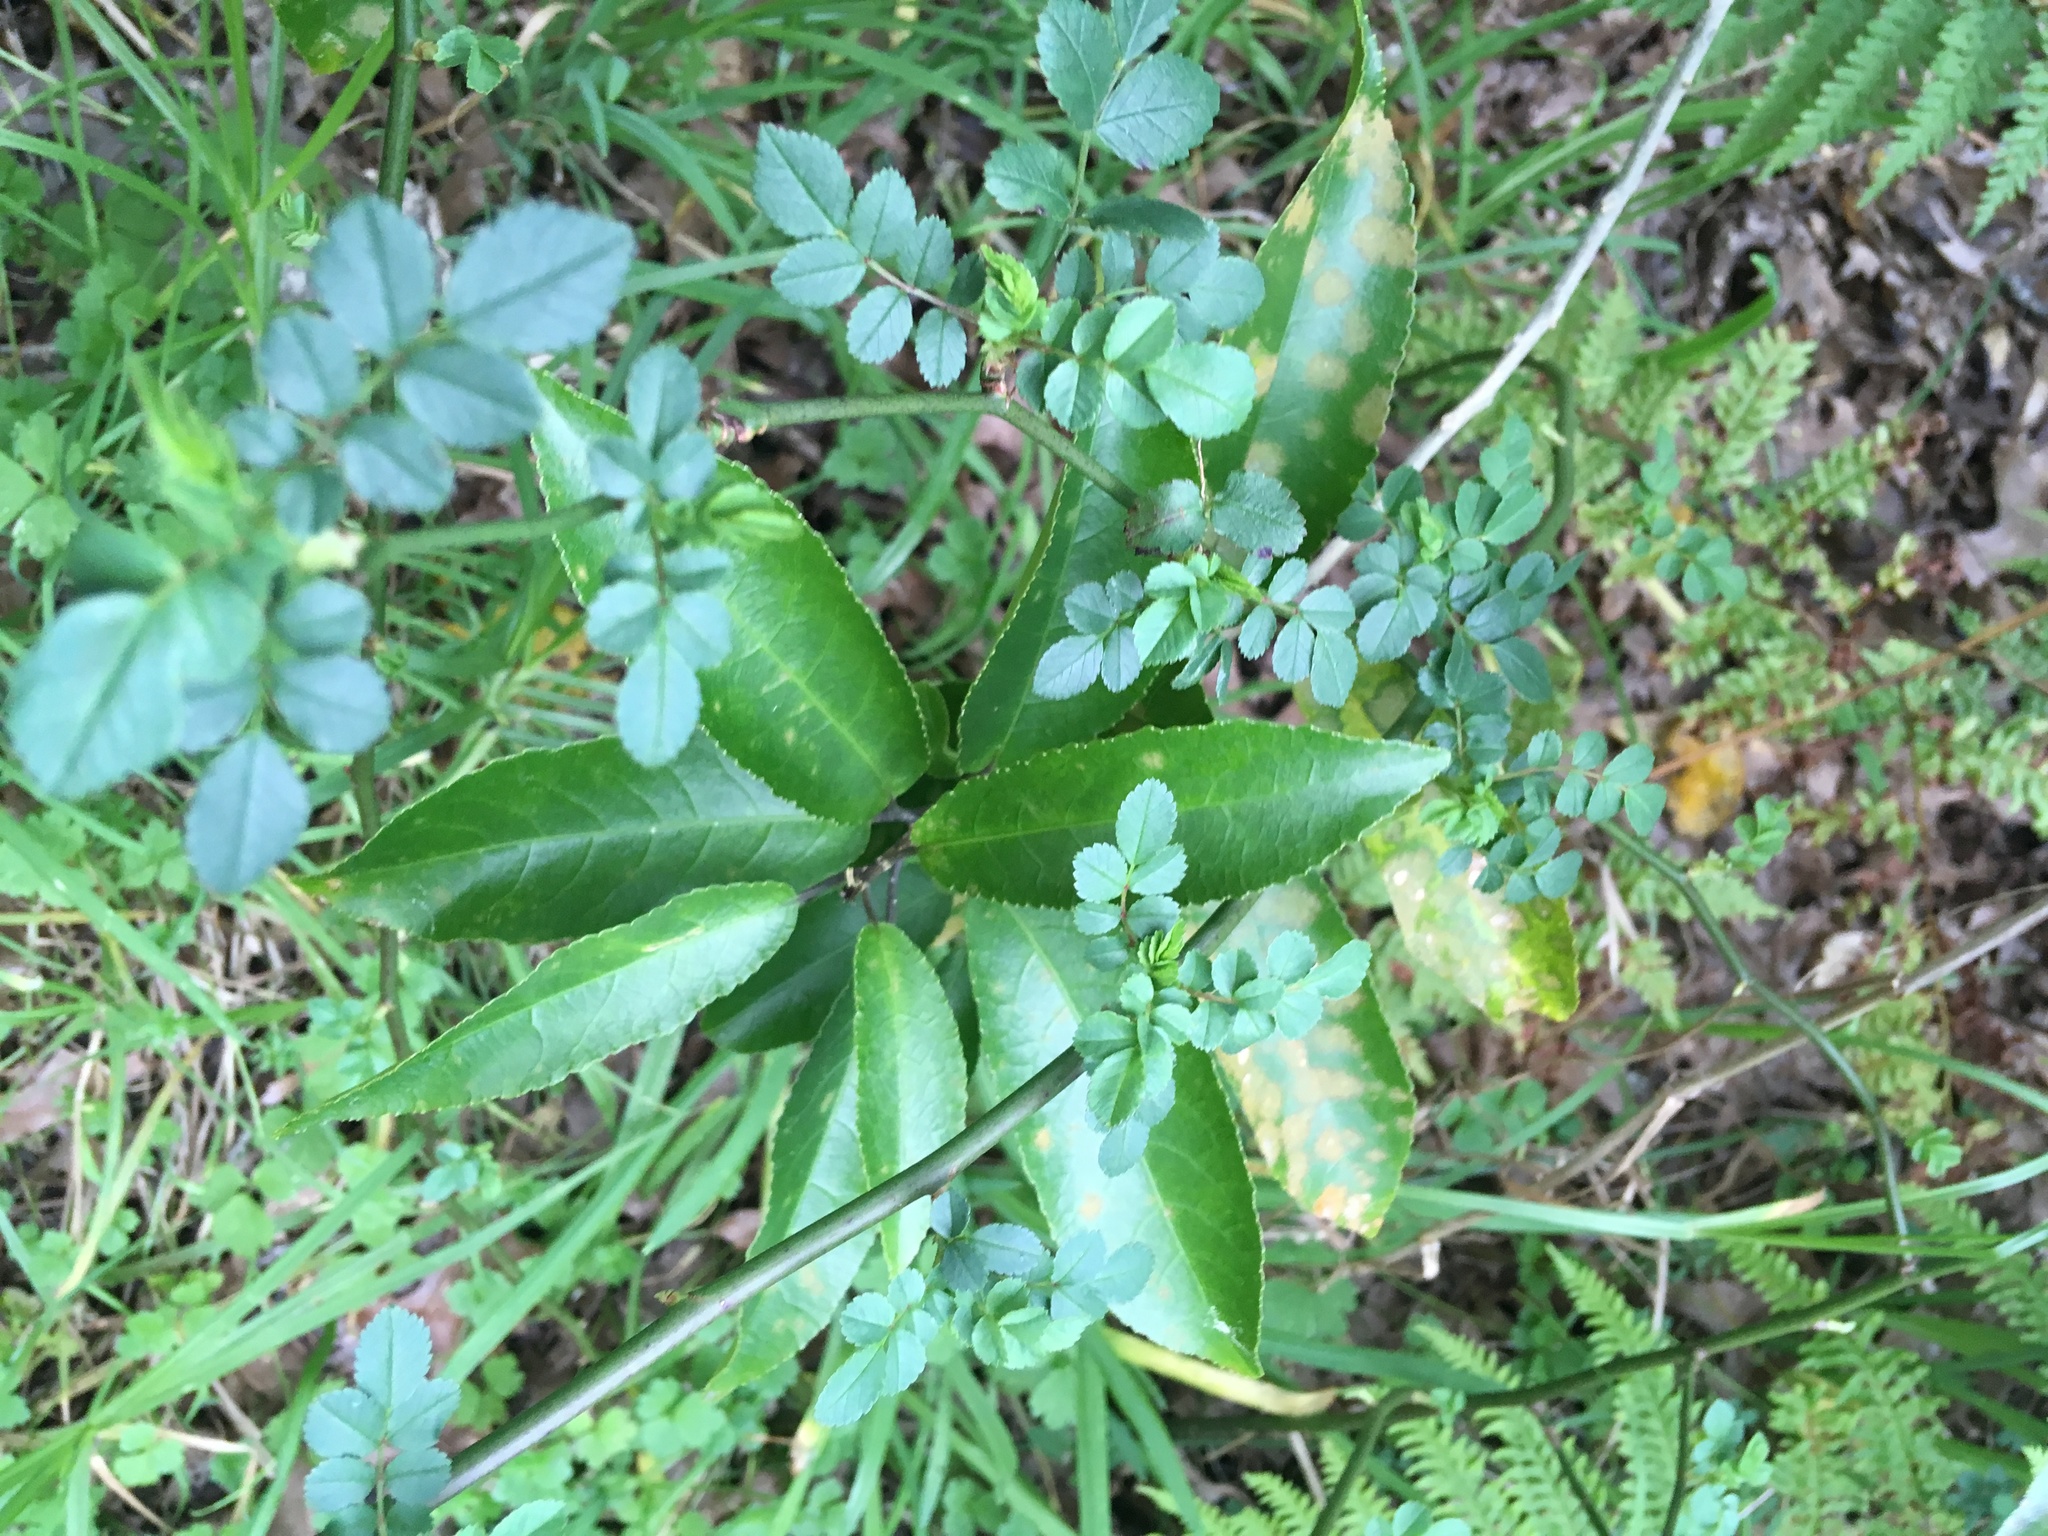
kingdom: Plantae
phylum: Tracheophyta
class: Magnoliopsida
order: Malpighiales
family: Violaceae
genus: Melicytus
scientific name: Melicytus ramiflorus
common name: Mahoe
